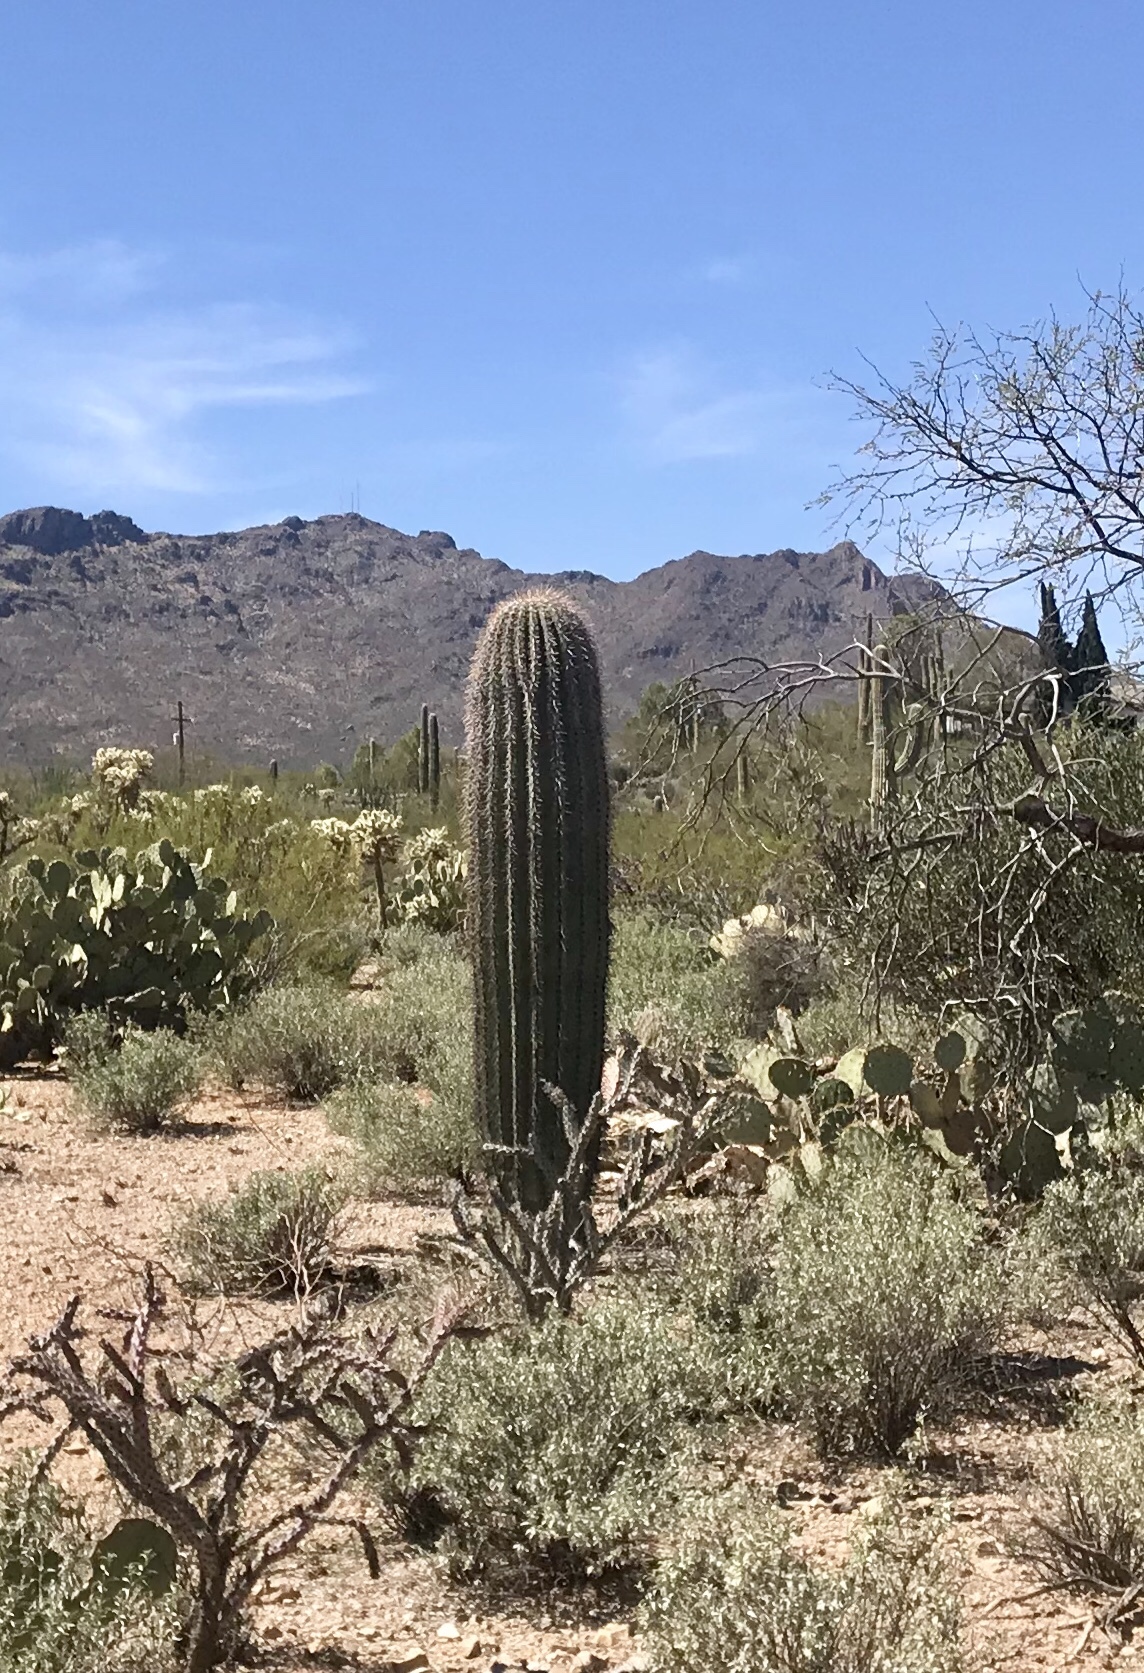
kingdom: Plantae
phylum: Tracheophyta
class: Magnoliopsida
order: Caryophyllales
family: Cactaceae
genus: Carnegiea
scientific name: Carnegiea gigantea
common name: Saguaro
